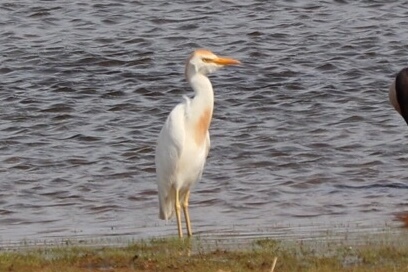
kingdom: Animalia
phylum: Chordata
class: Aves
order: Pelecaniformes
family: Ardeidae
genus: Bubulcus
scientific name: Bubulcus ibis
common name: Cattle egret
